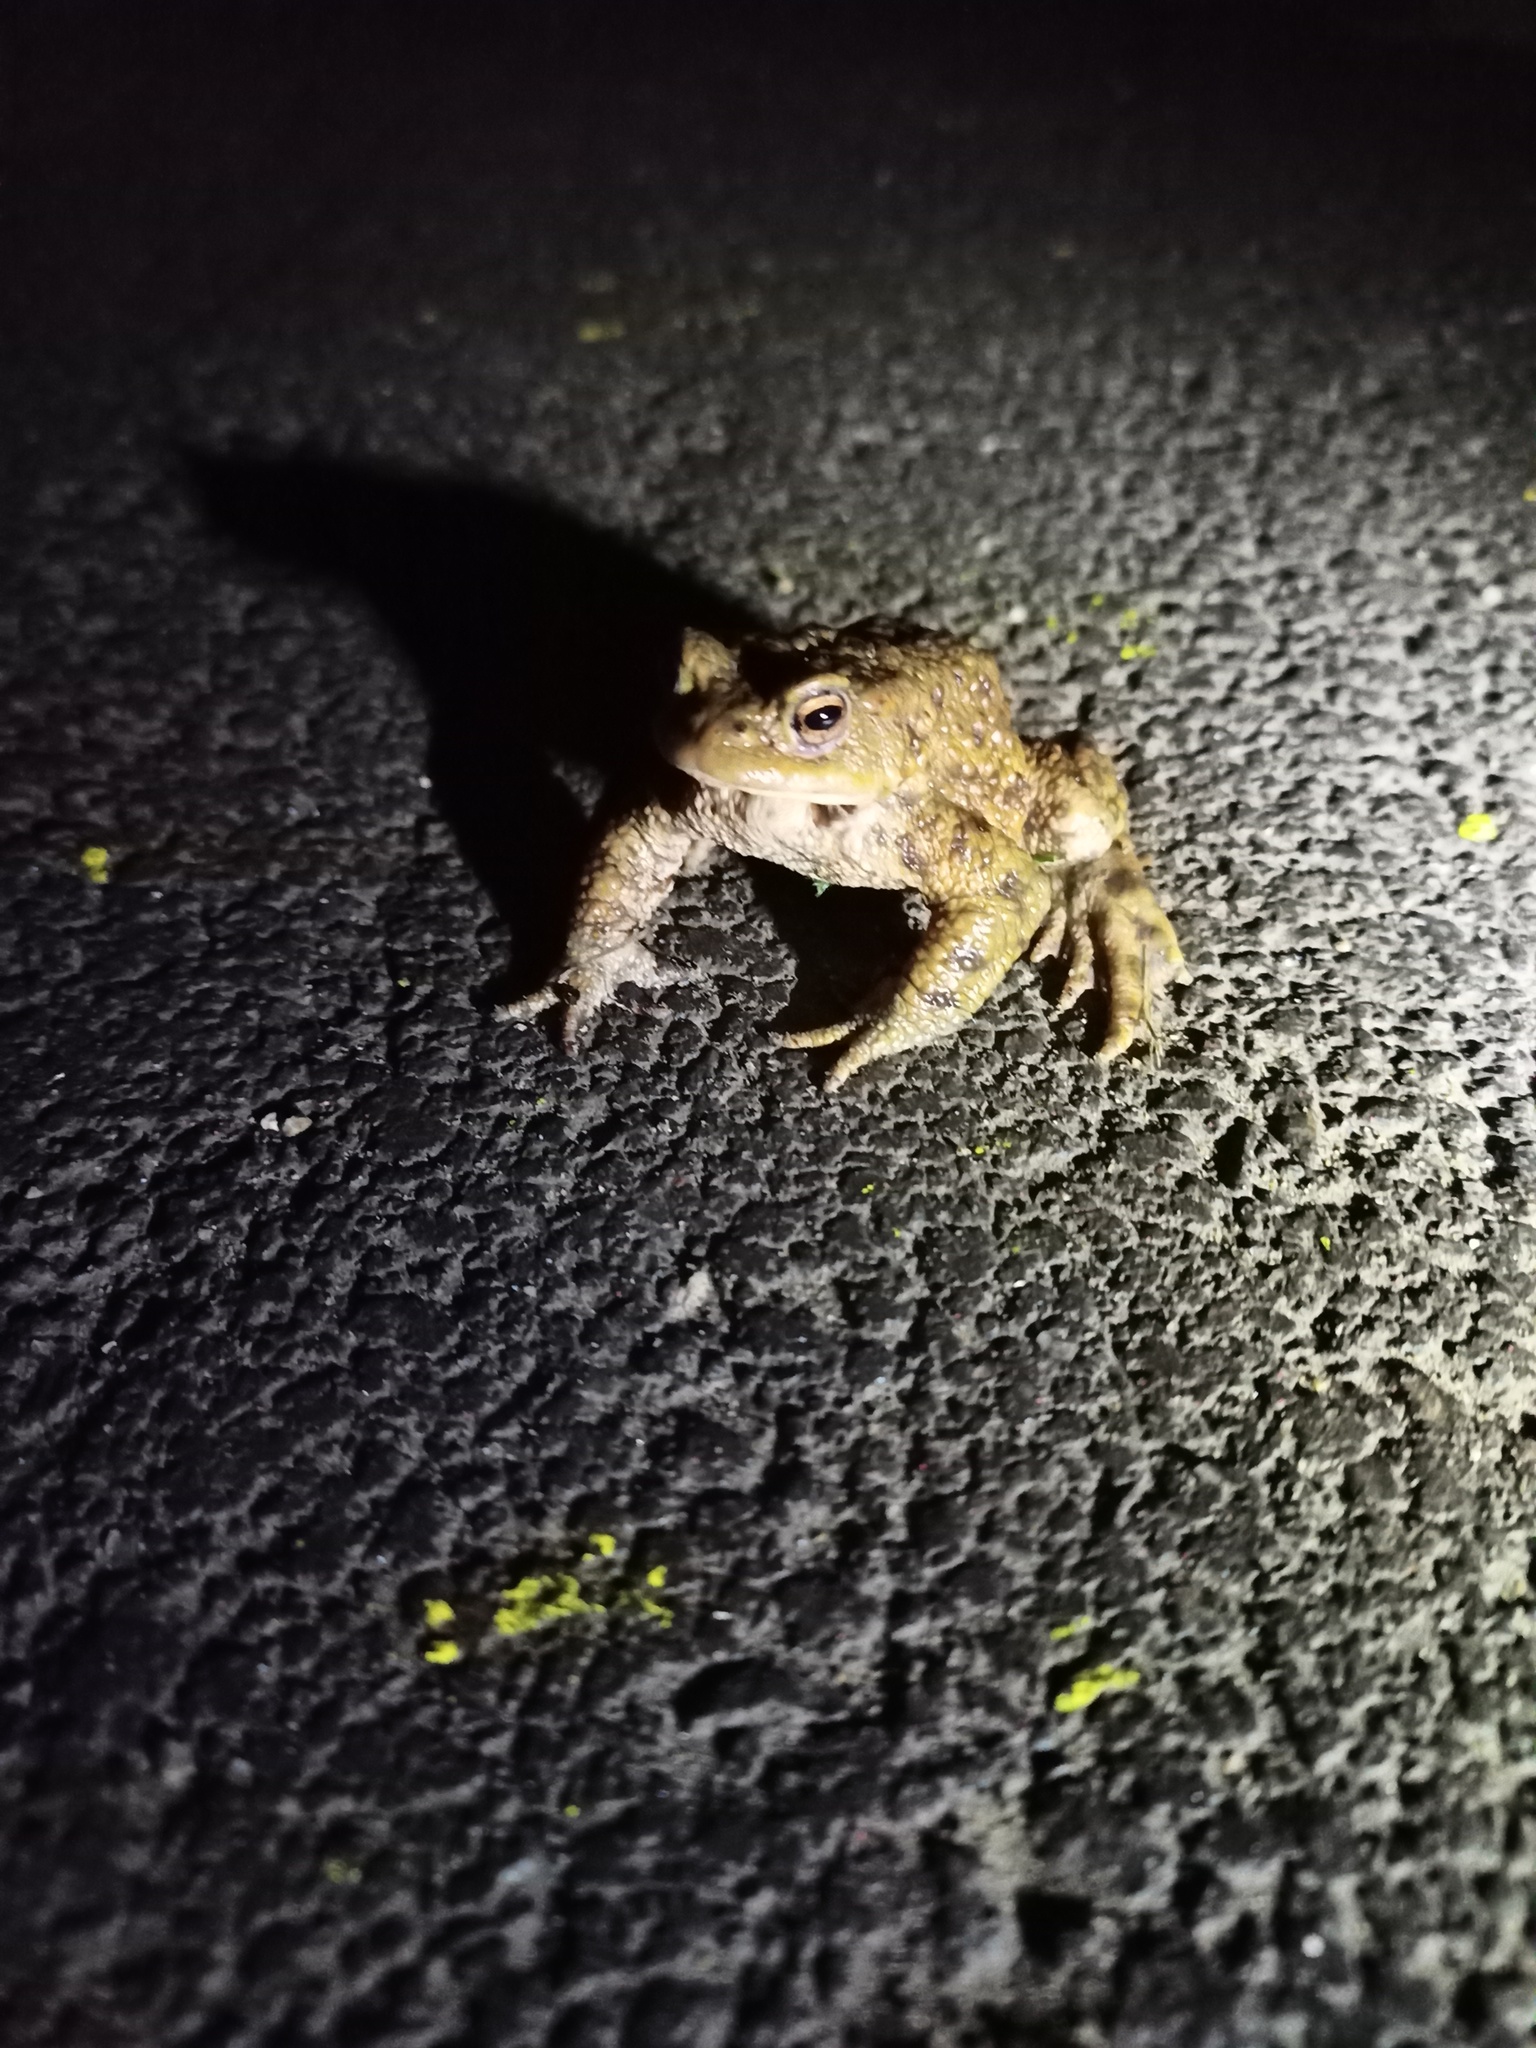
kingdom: Animalia
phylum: Chordata
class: Amphibia
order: Anura
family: Bufonidae
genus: Bufo
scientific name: Bufo bufo
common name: Common toad
